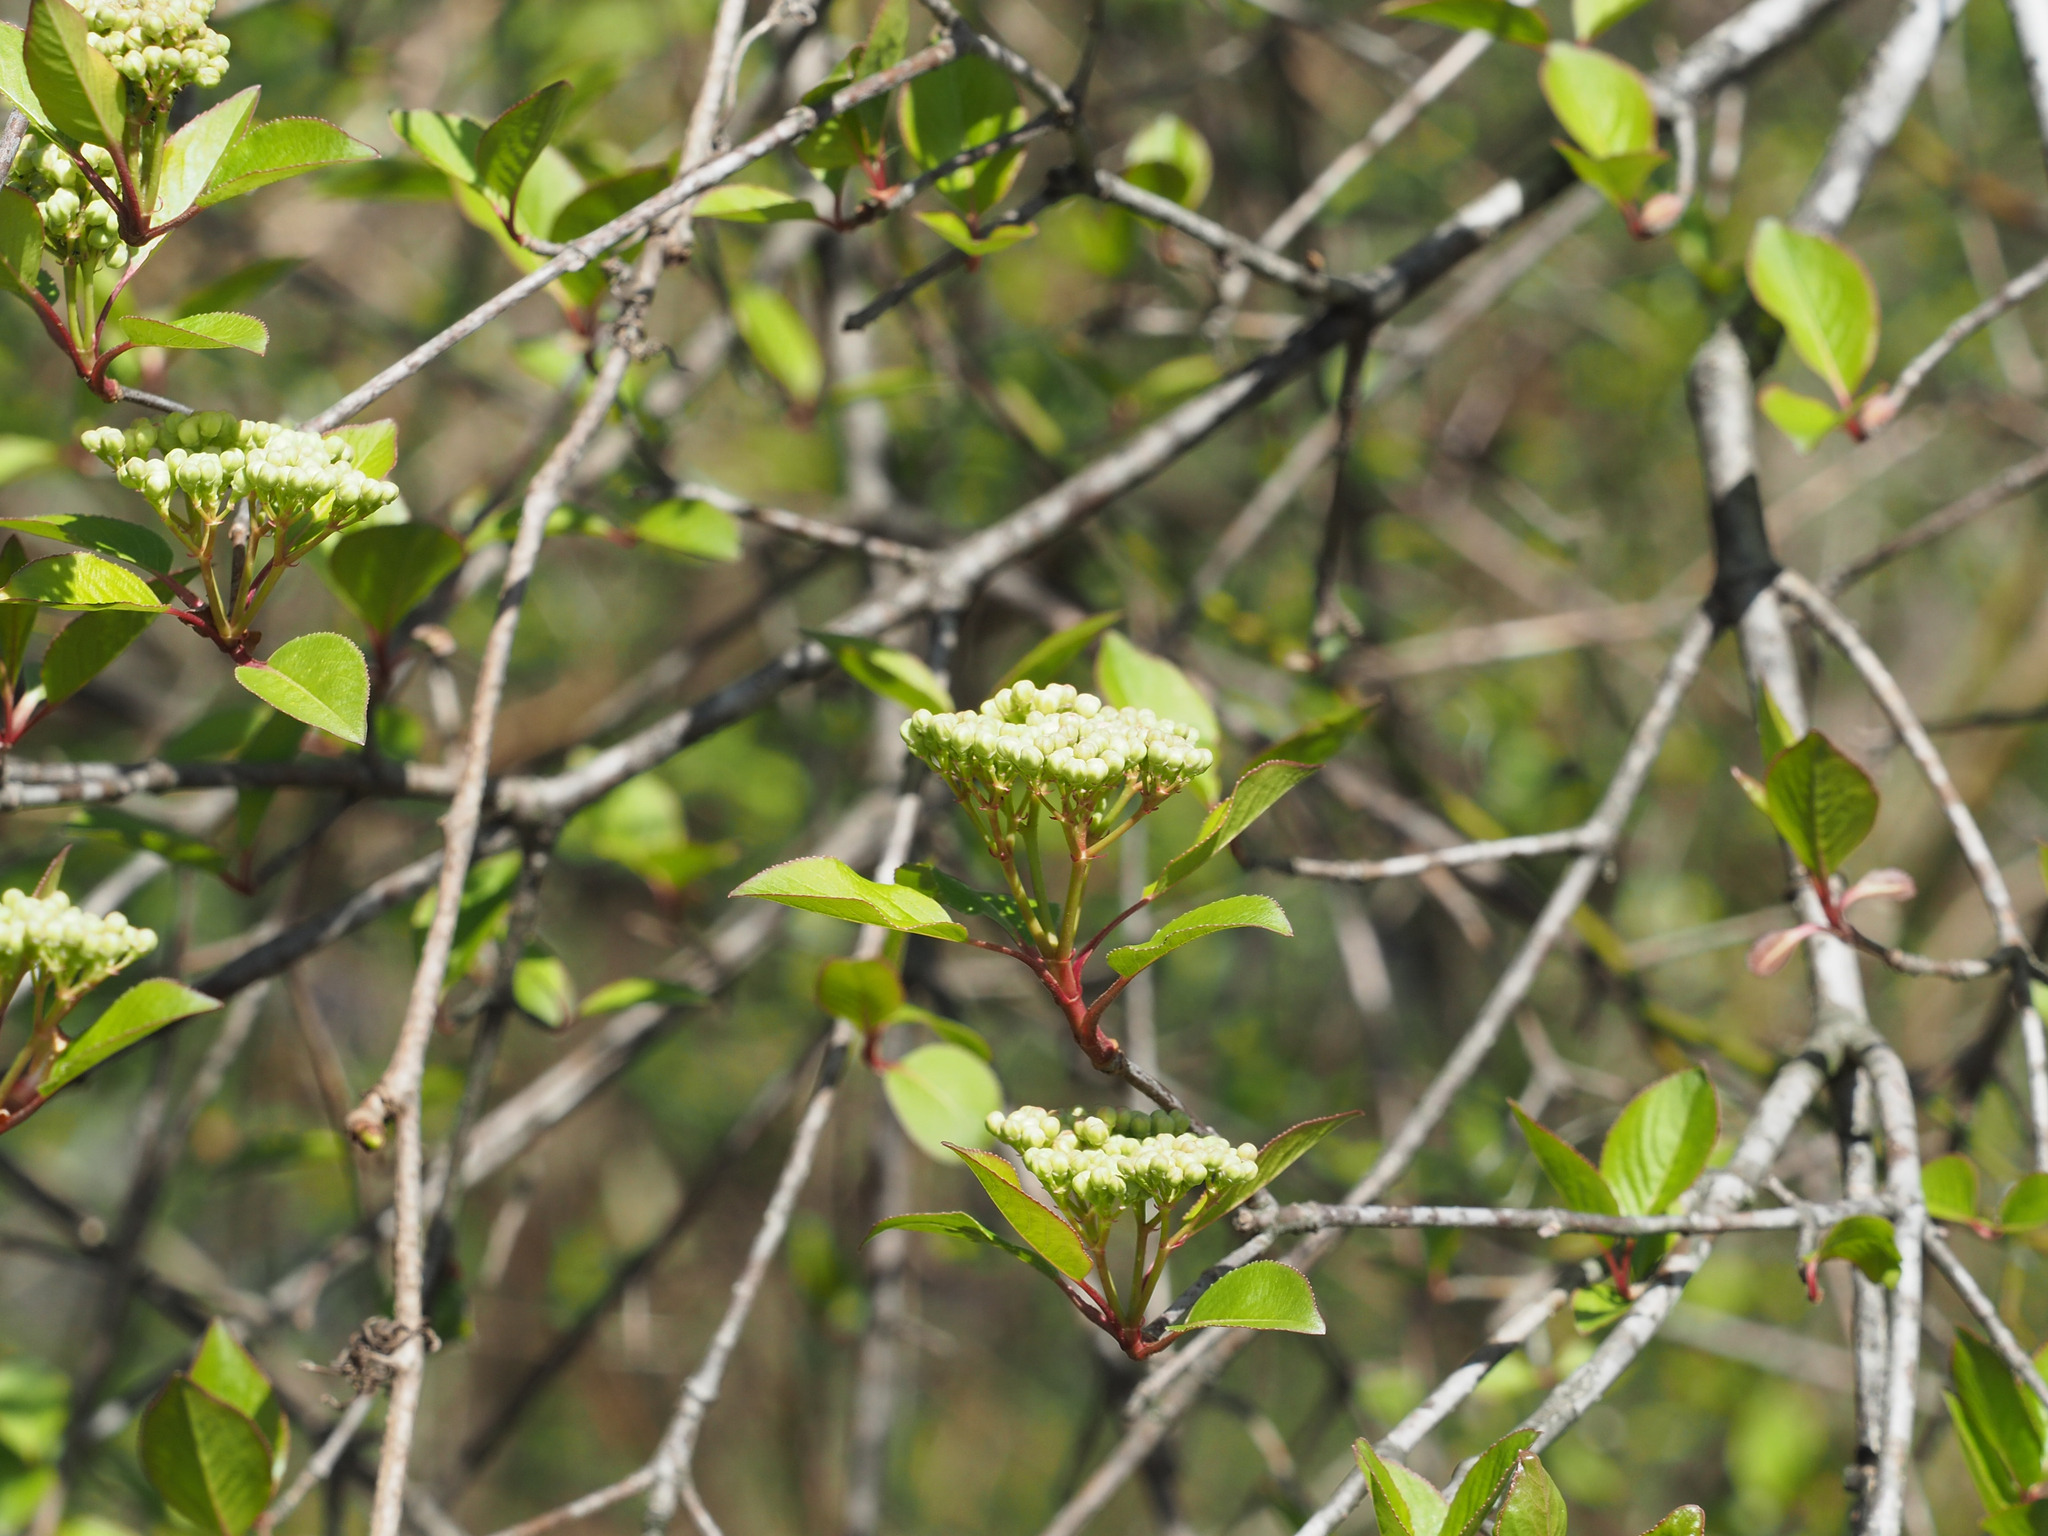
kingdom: Plantae
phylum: Tracheophyta
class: Magnoliopsida
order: Dipsacales
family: Viburnaceae
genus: Viburnum
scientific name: Viburnum prunifolium
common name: Black haw
